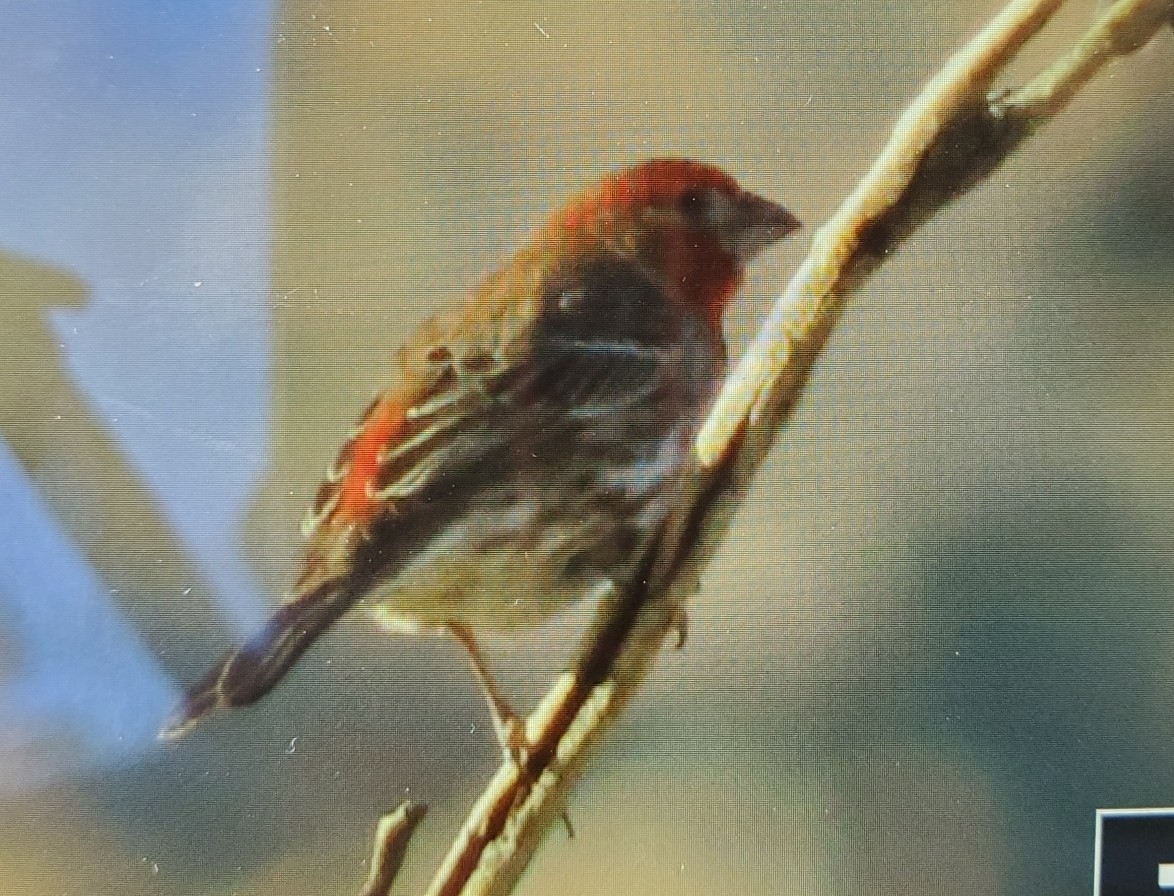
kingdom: Animalia
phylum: Chordata
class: Aves
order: Passeriformes
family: Fringillidae
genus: Haemorhous
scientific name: Haemorhous mexicanus
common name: House finch
